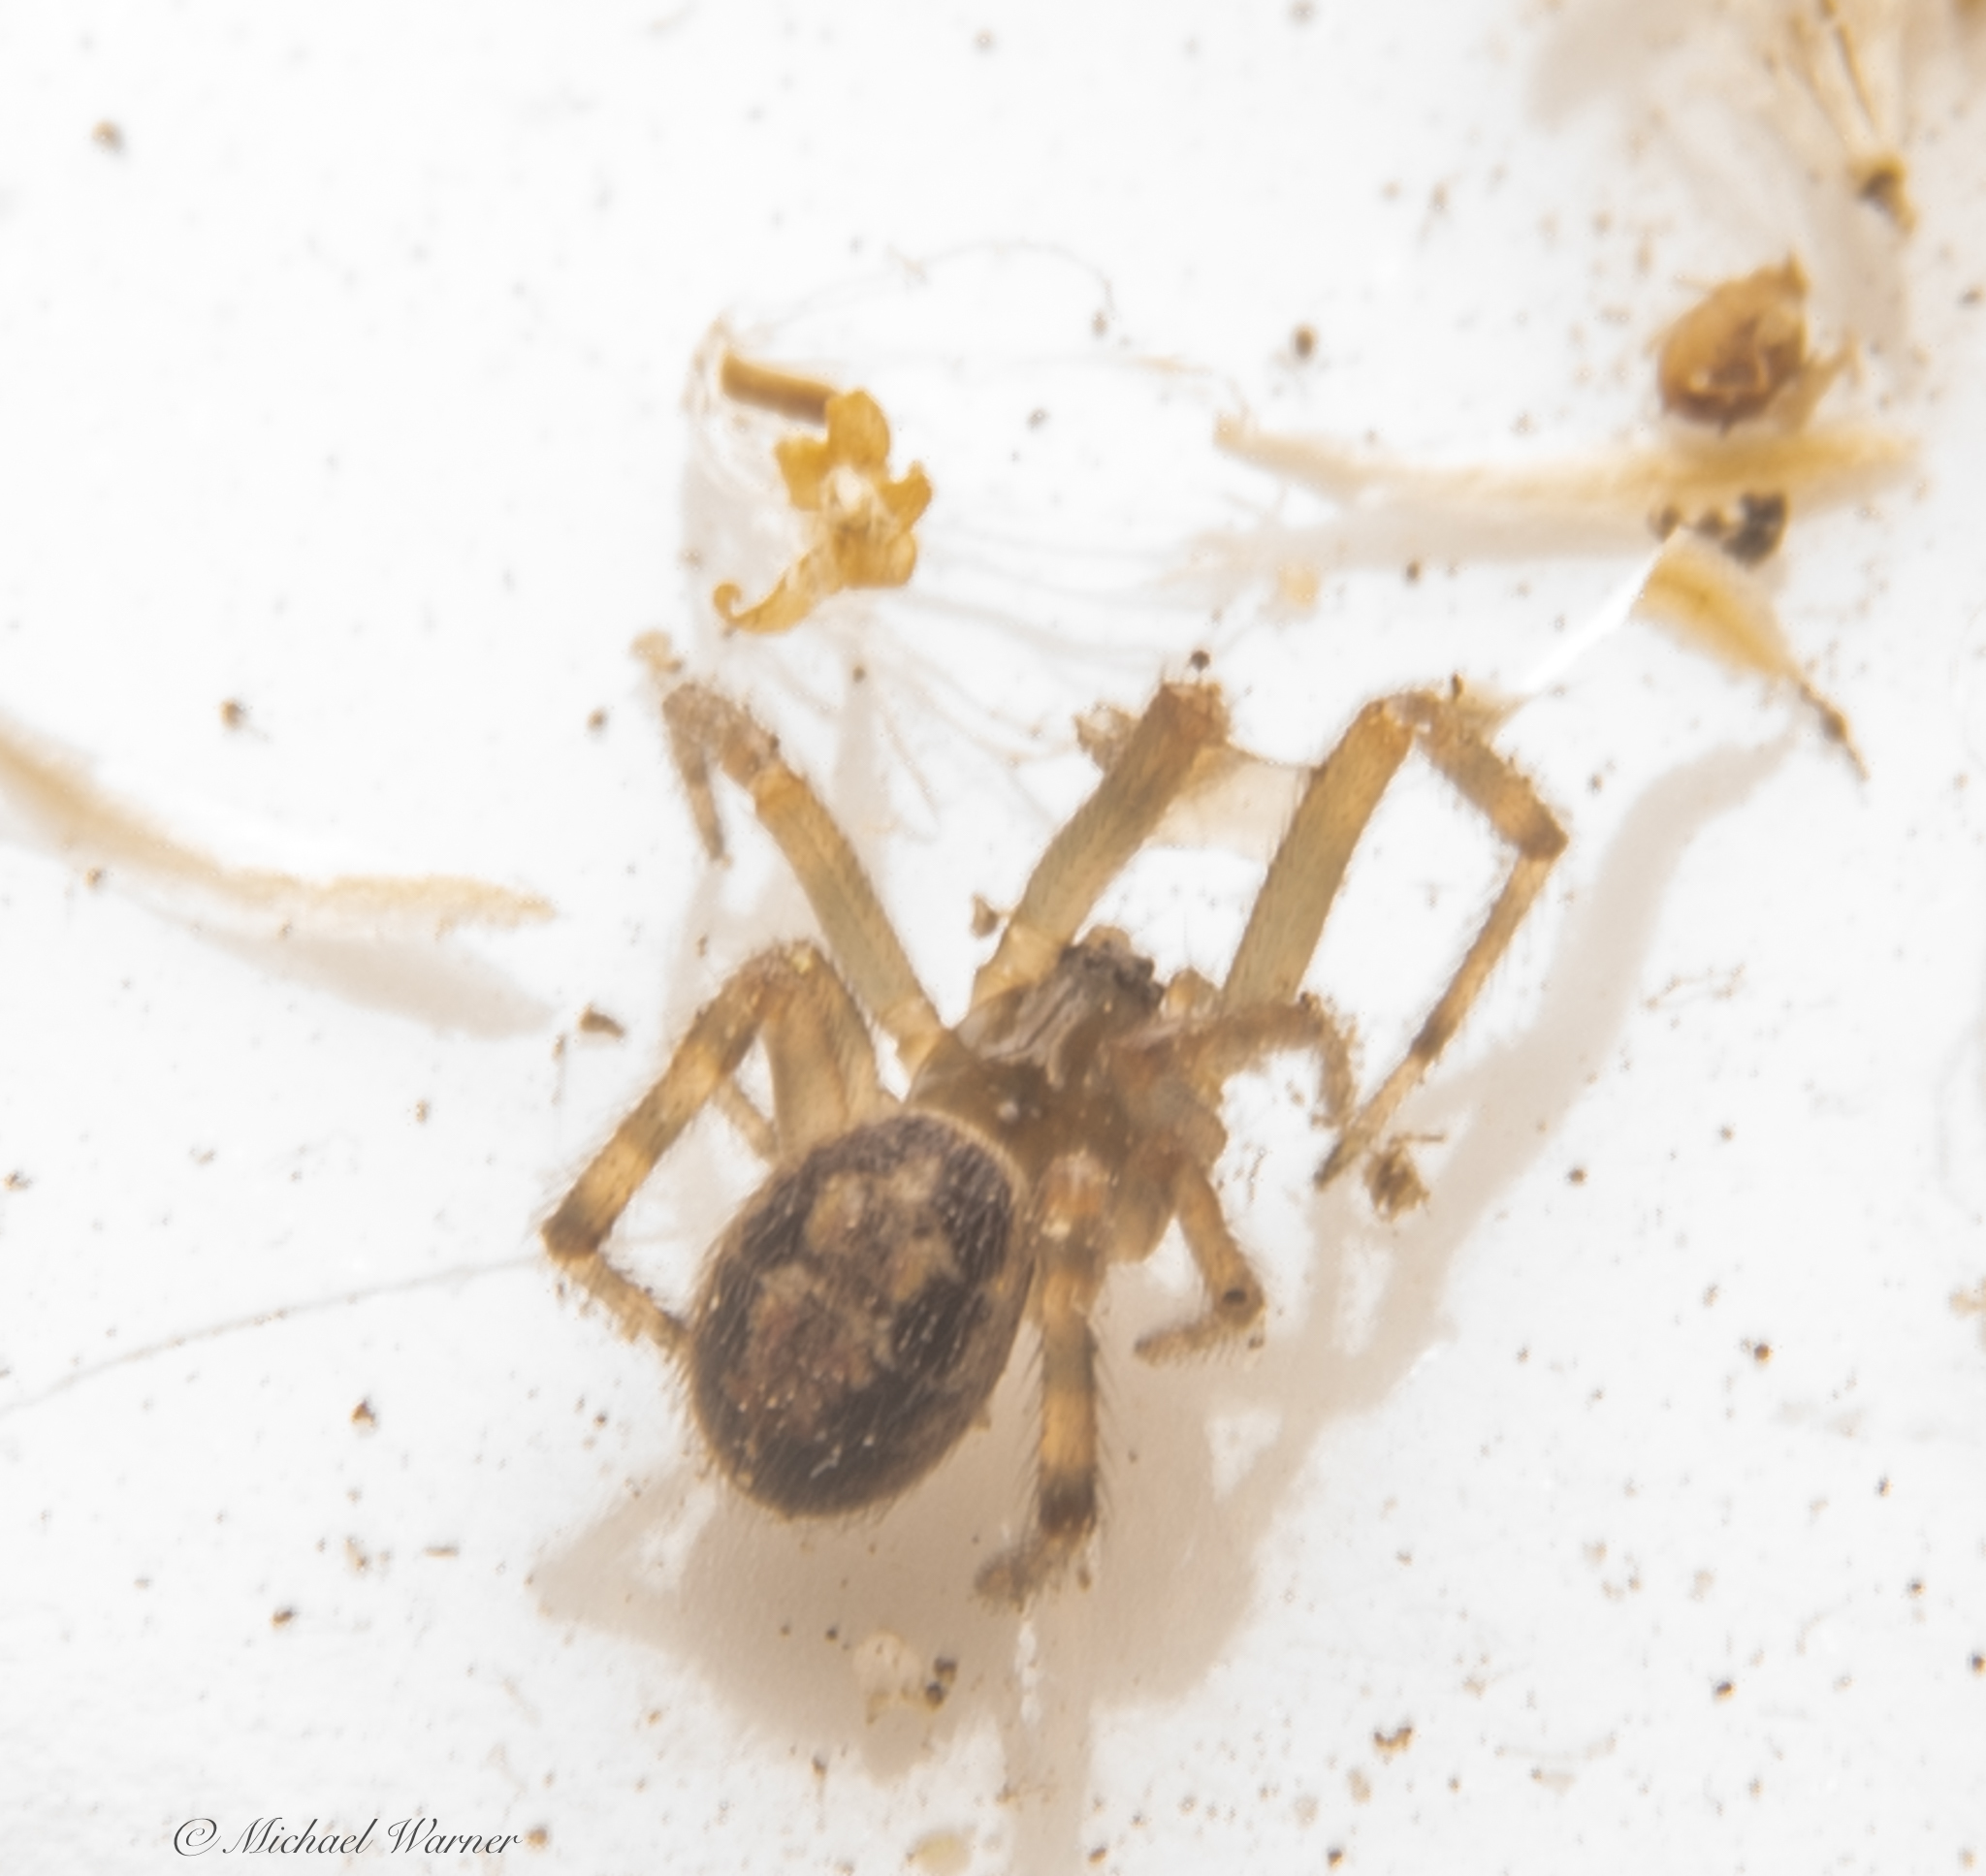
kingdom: Animalia
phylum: Arthropoda
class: Arachnida
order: Araneae
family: Theridiidae
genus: Steatoda
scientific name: Steatoda nobilis
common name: Cobweb weaver
